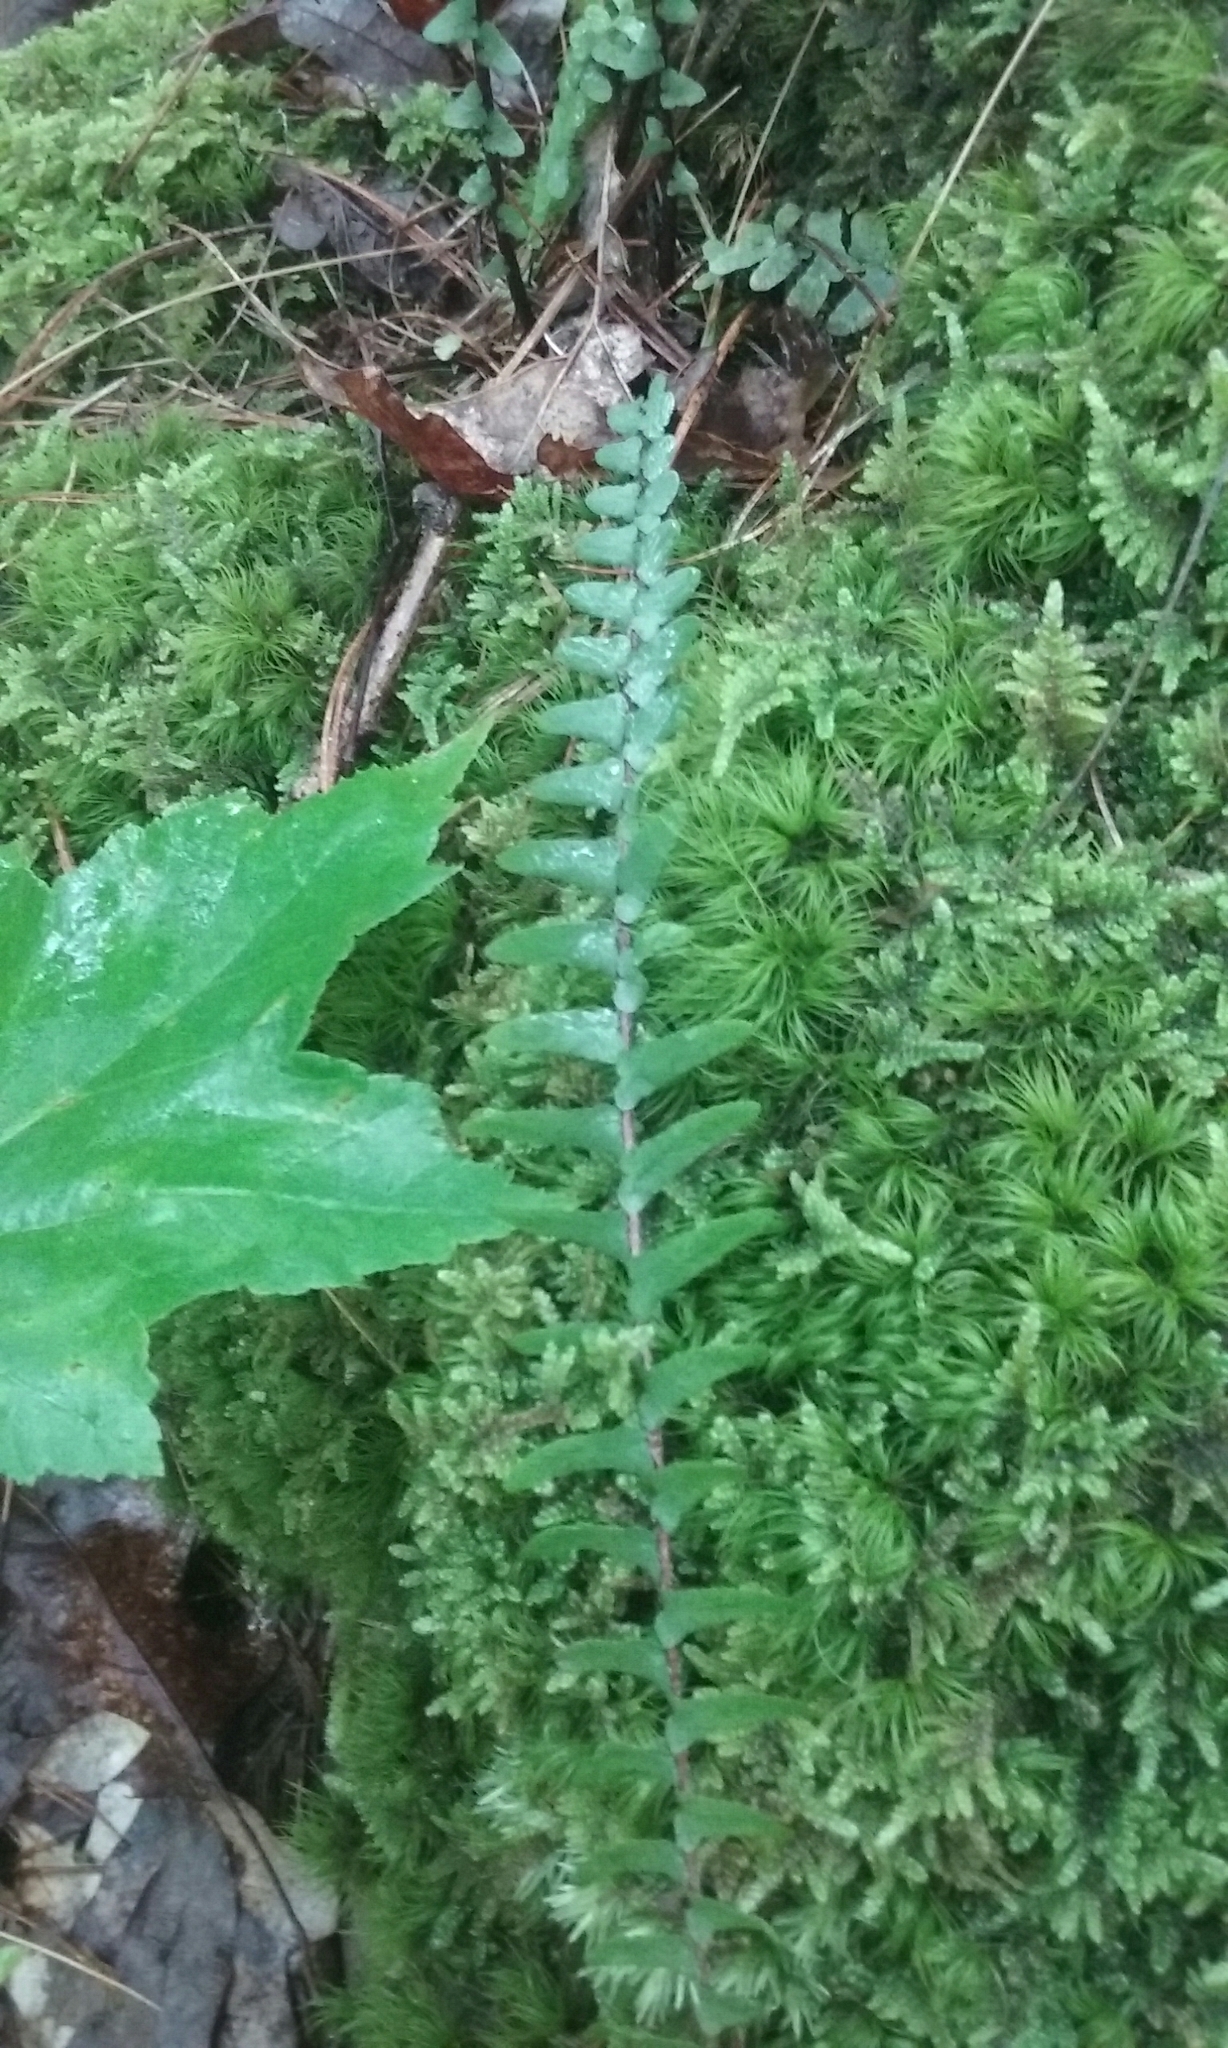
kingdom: Plantae
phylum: Tracheophyta
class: Polypodiopsida
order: Polypodiales
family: Aspleniaceae
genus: Asplenium
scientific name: Asplenium platyneuron
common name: Ebony spleenwort
